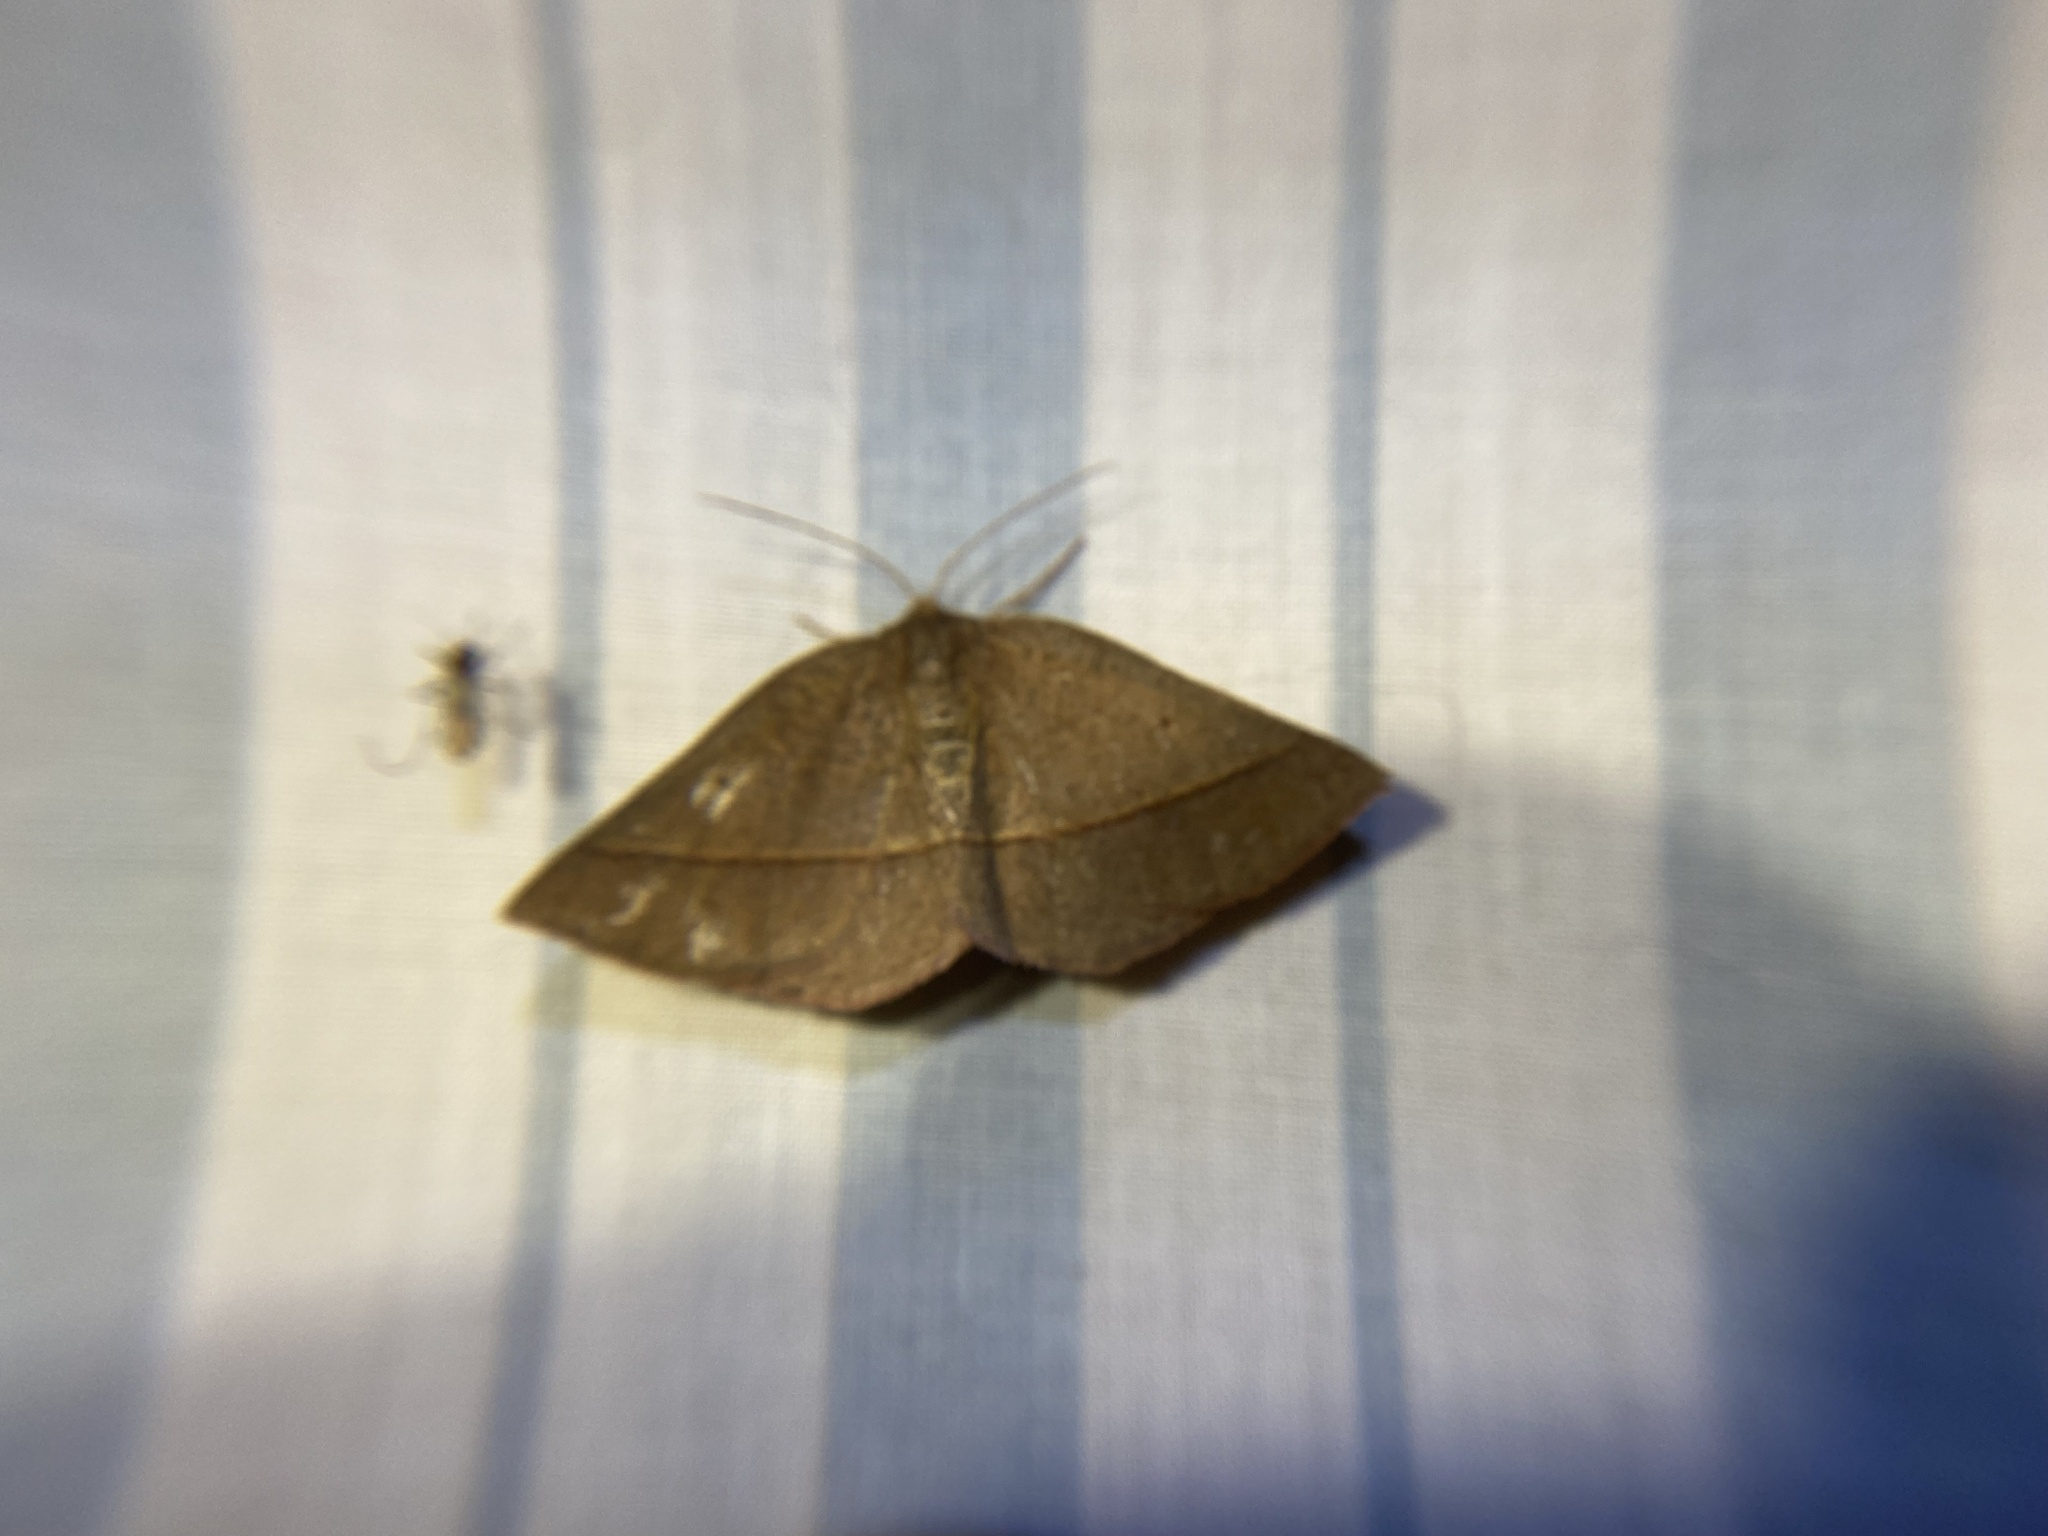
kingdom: Animalia
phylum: Arthropoda
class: Insecta
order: Lepidoptera
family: Geometridae
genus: Metarranthis
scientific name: Metarranthis obfirmaria
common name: Yellow-washed metarranthis
